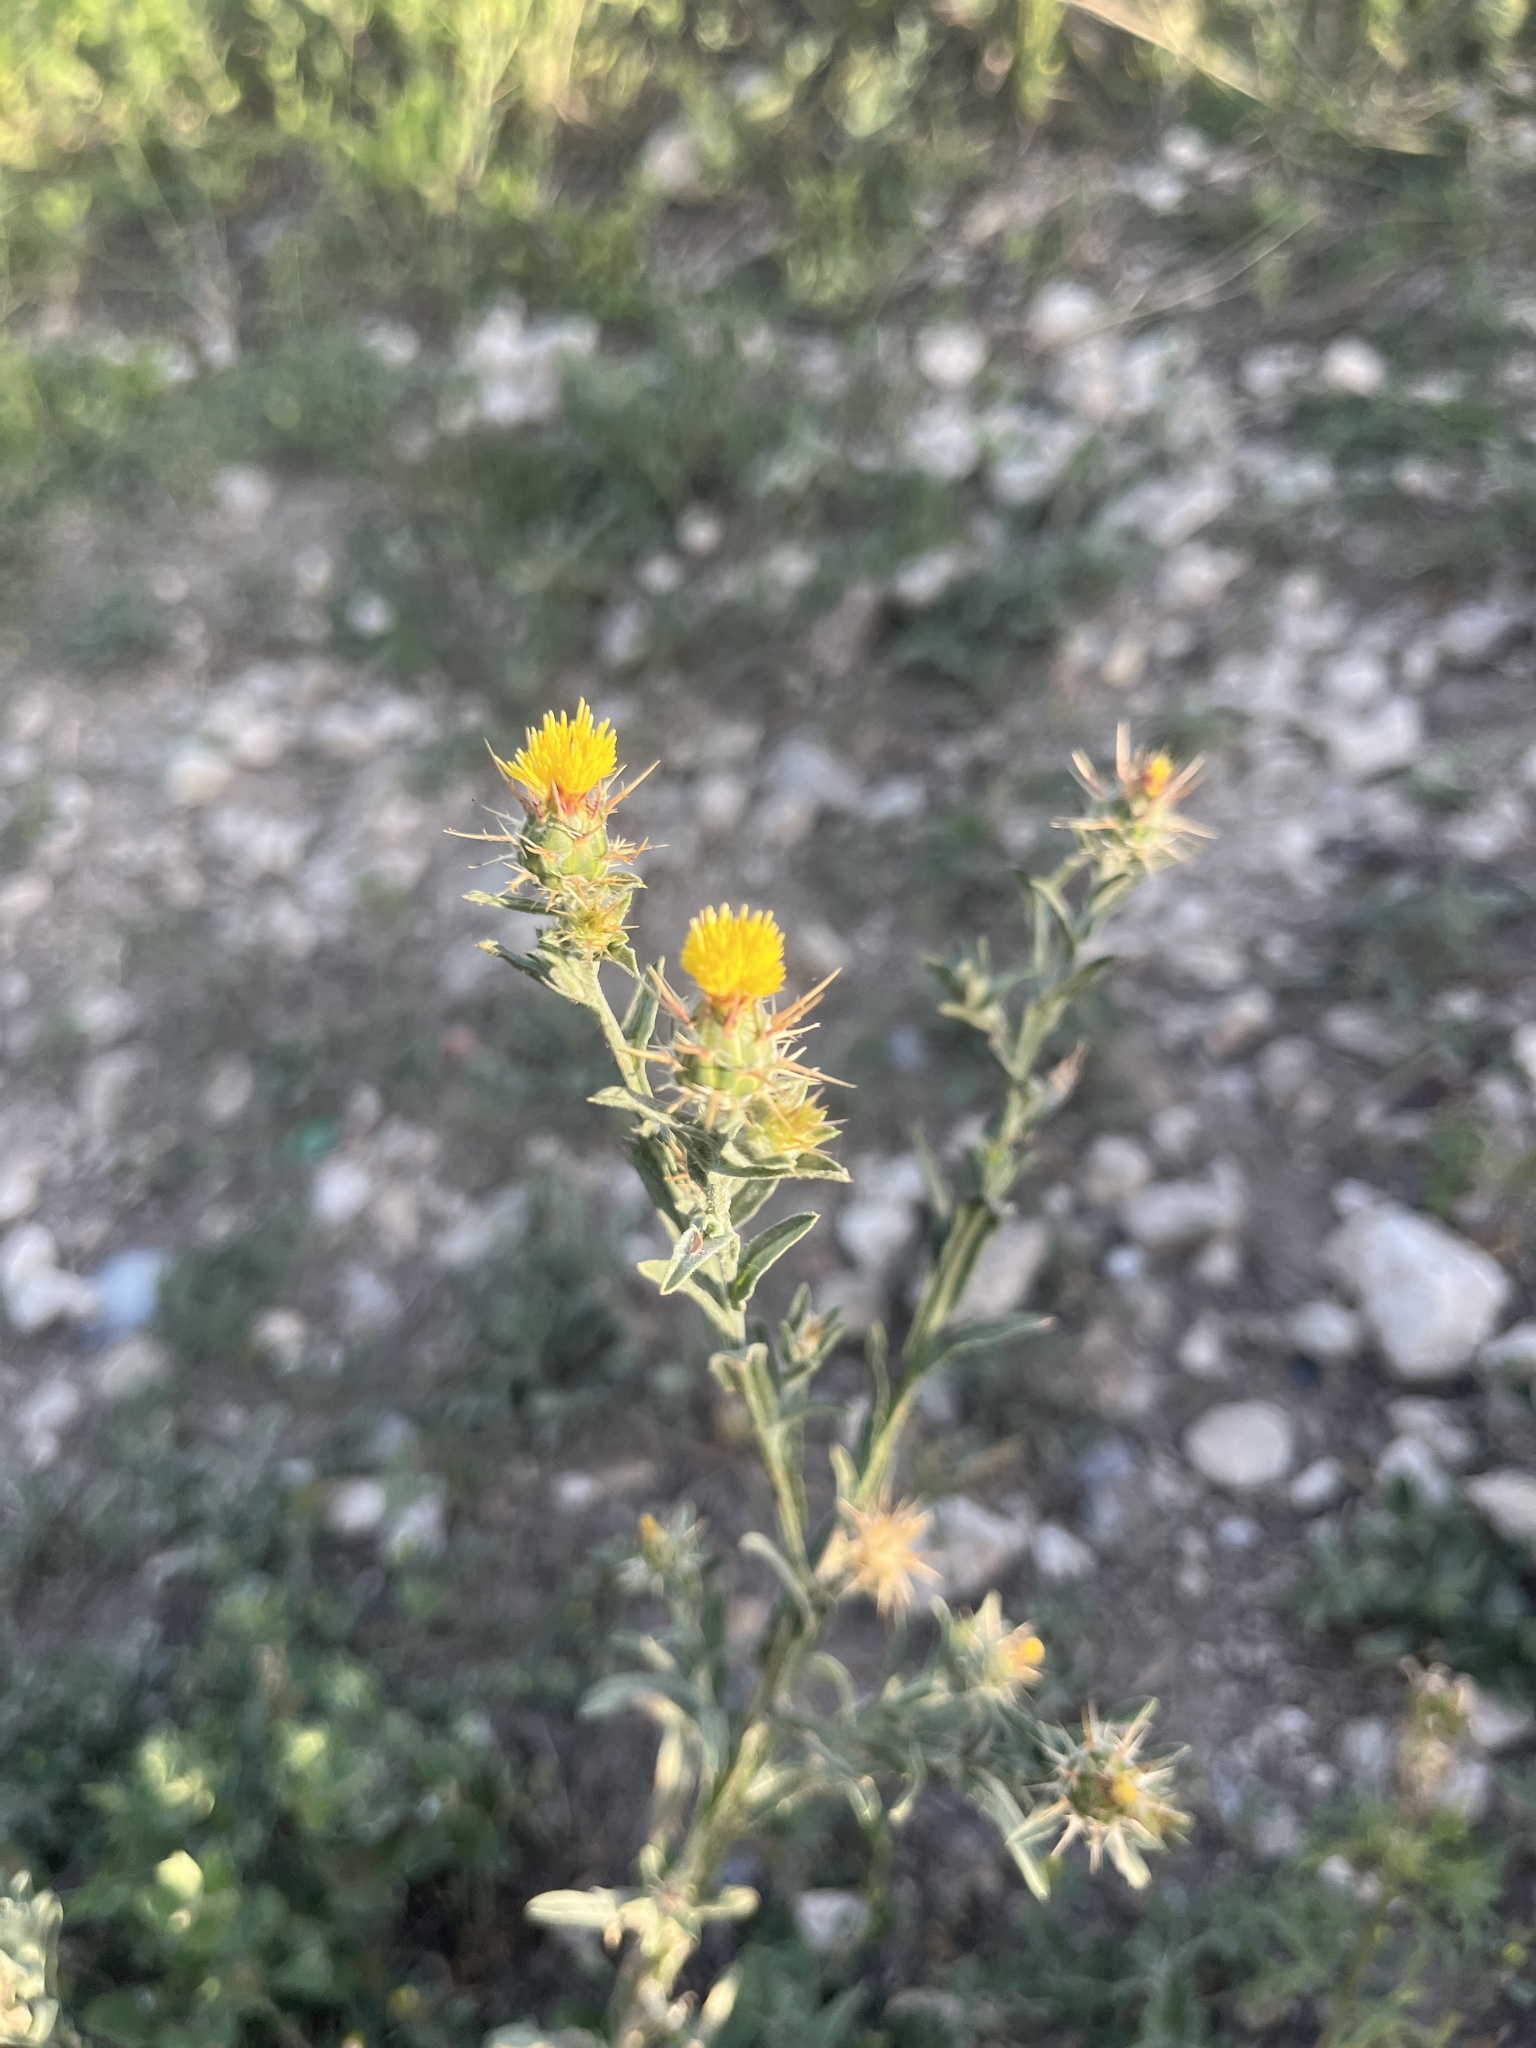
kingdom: Plantae
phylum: Tracheophyta
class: Magnoliopsida
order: Asterales
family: Asteraceae
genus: Centaurea
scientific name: Centaurea melitensis
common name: Maltese star-thistle
